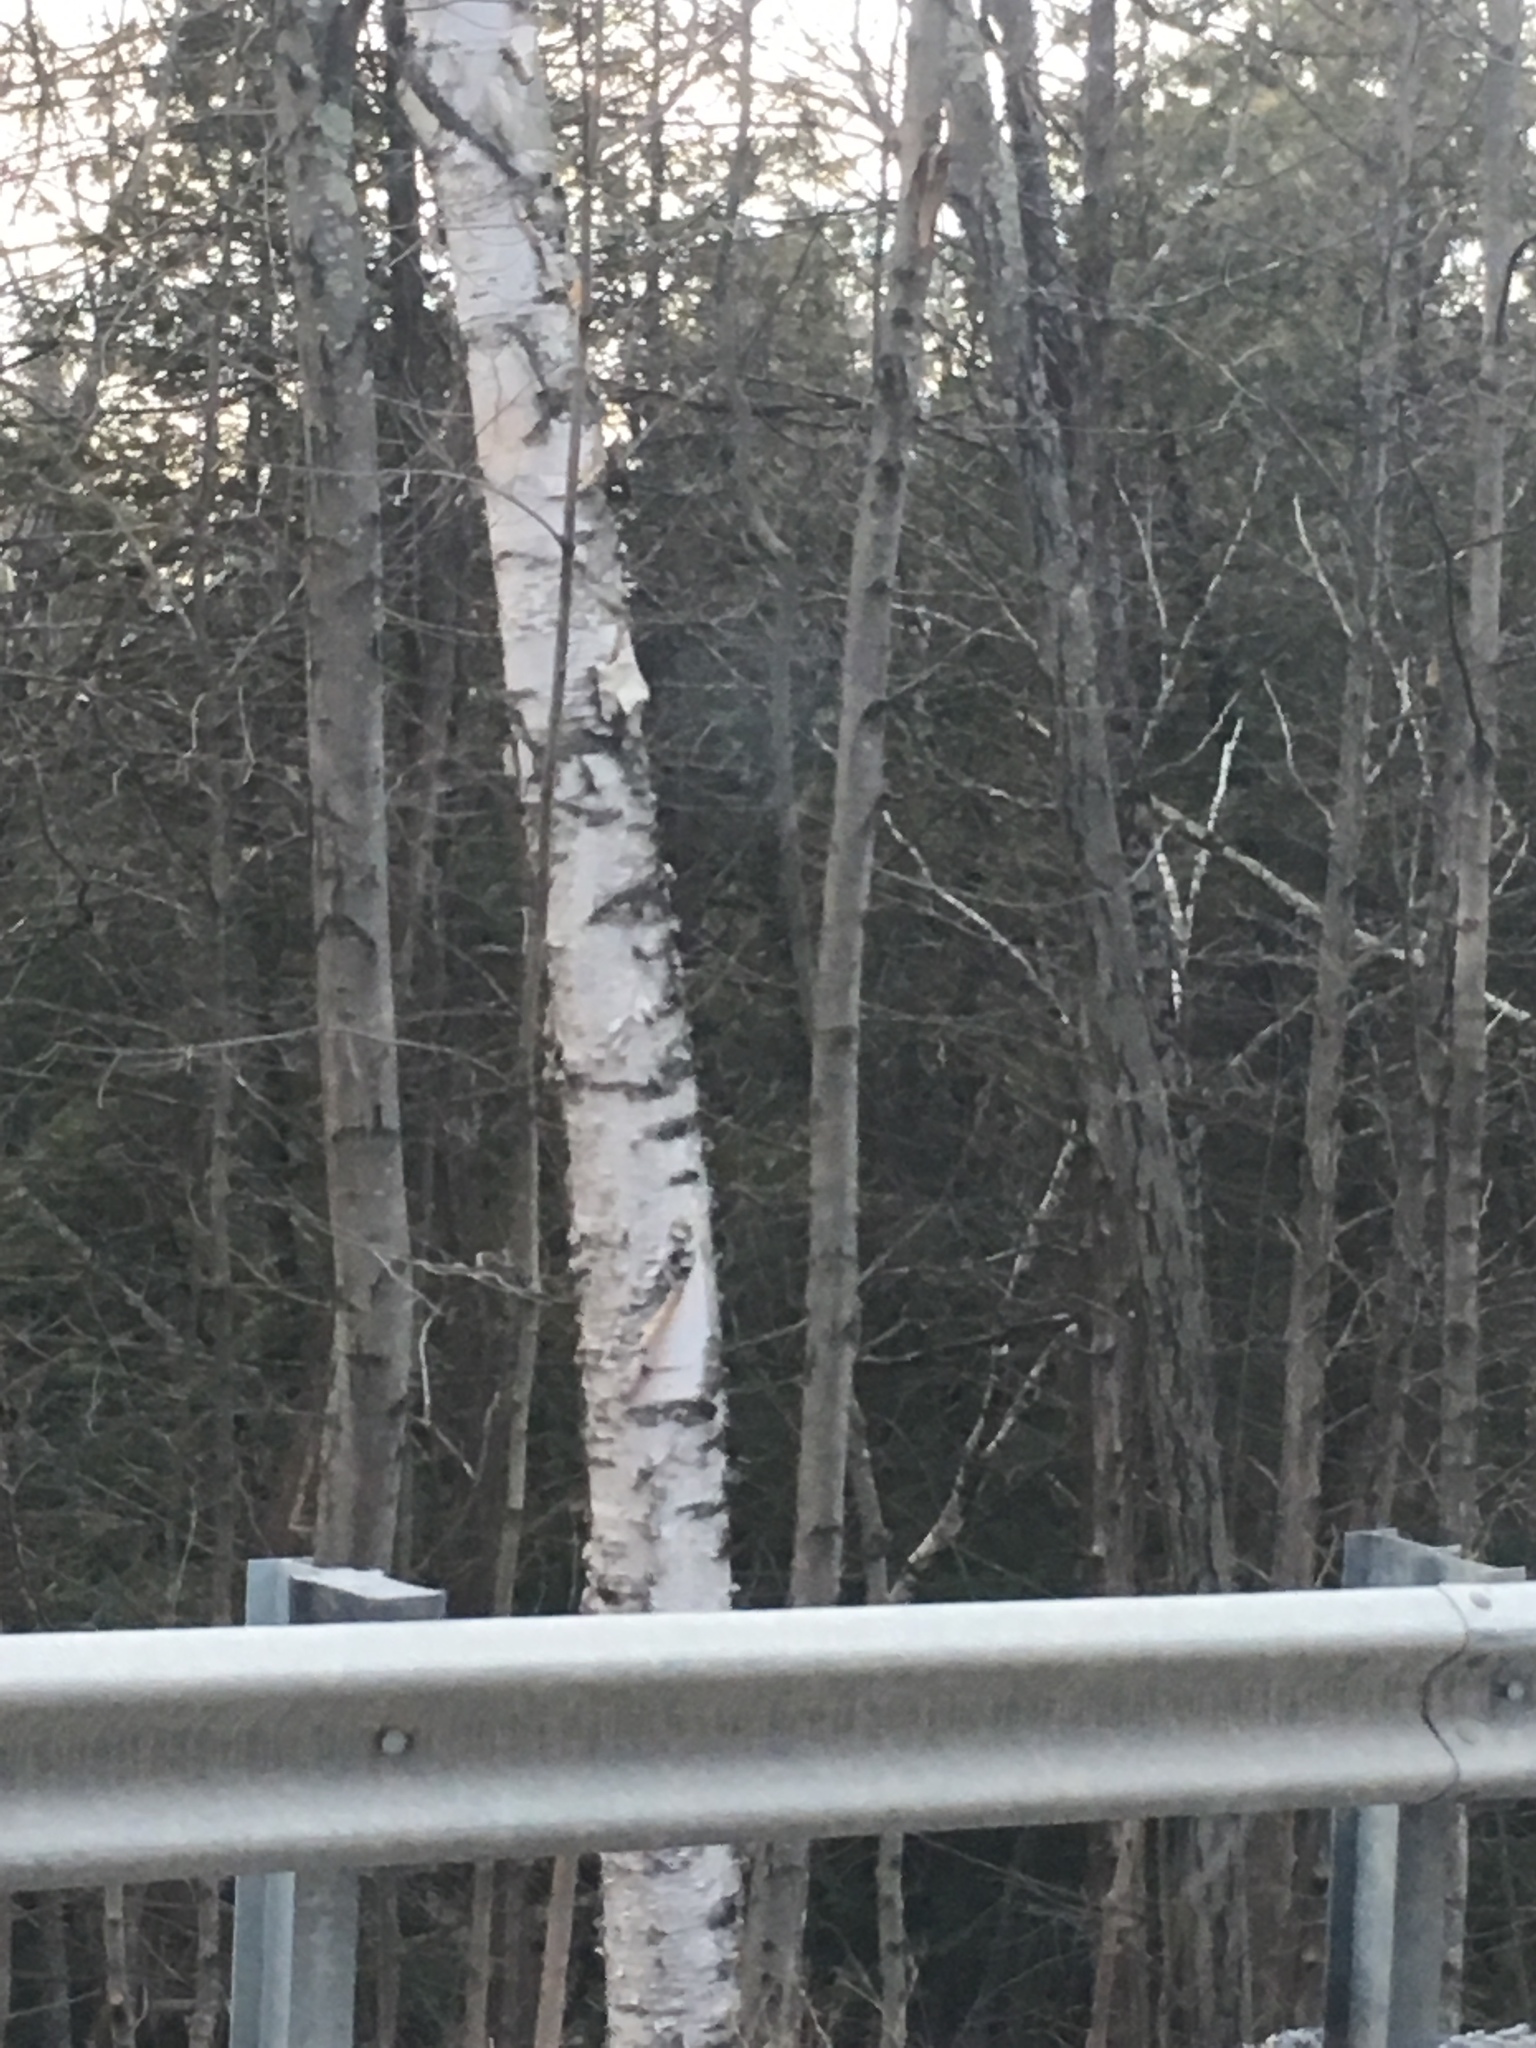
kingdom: Plantae
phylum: Tracheophyta
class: Magnoliopsida
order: Fagales
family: Betulaceae
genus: Betula
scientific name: Betula papyrifera
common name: Paper birch
